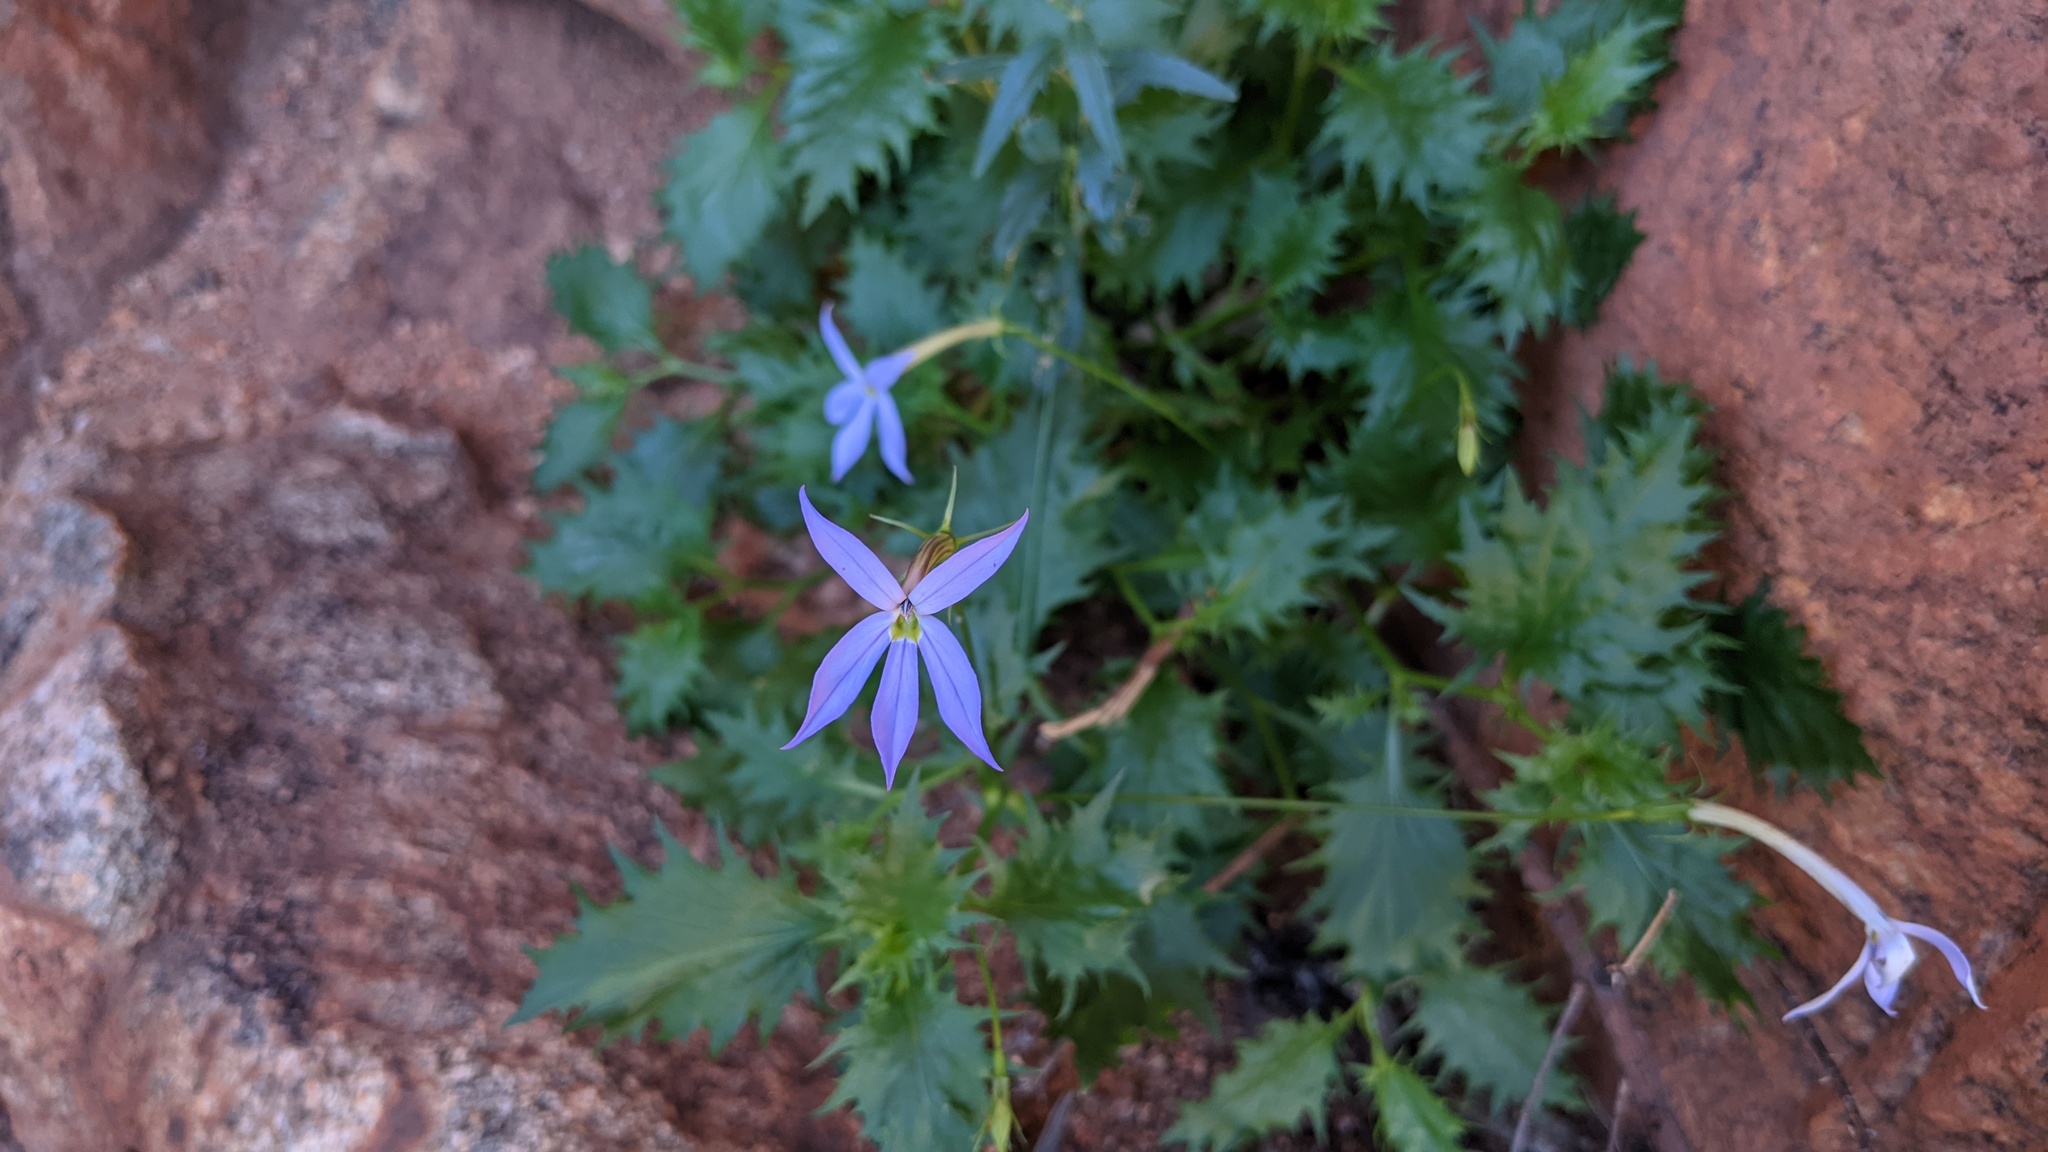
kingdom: Plantae
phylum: Tracheophyta
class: Magnoliopsida
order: Asterales
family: Campanulaceae
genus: Lithotoma
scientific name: Lithotoma petraea
